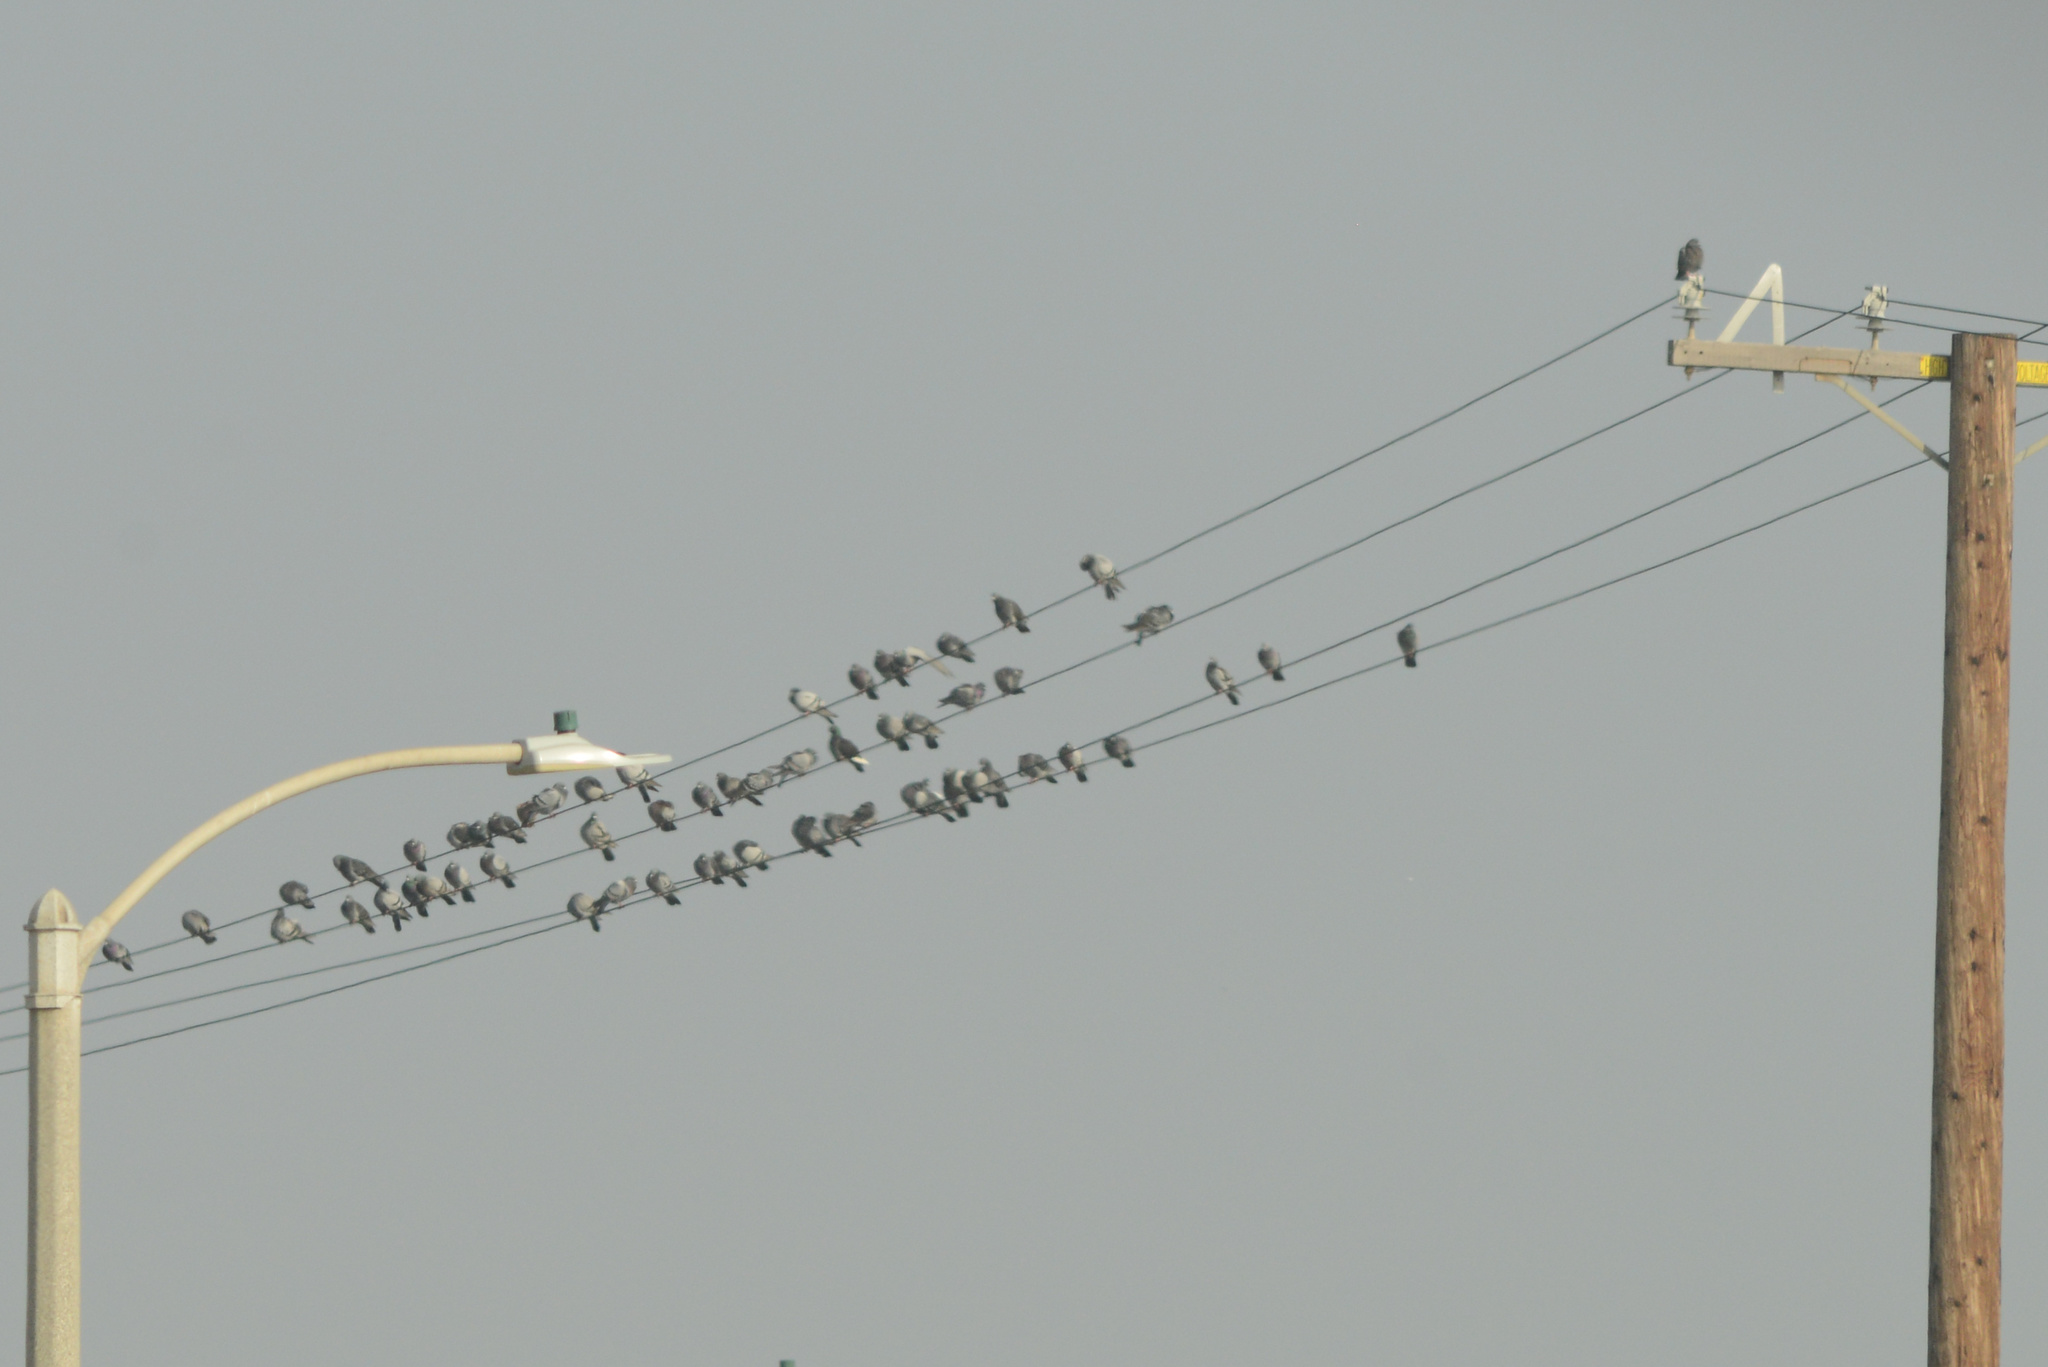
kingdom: Animalia
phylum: Chordata
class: Aves
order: Columbiformes
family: Columbidae
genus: Columba
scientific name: Columba livia
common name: Rock pigeon
